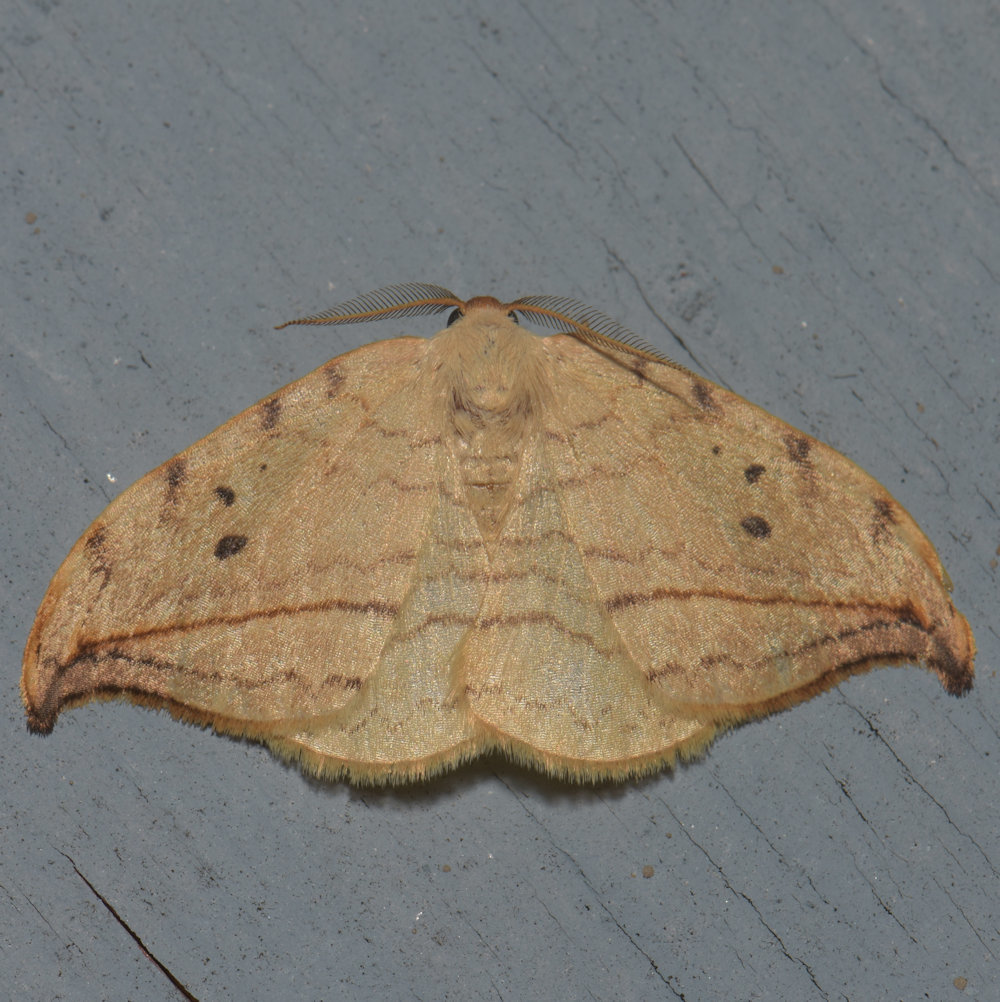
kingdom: Animalia
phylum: Arthropoda
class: Insecta
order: Lepidoptera
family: Drepanidae
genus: Drepana
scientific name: Drepana arcuata
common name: Arched hooktip moth
